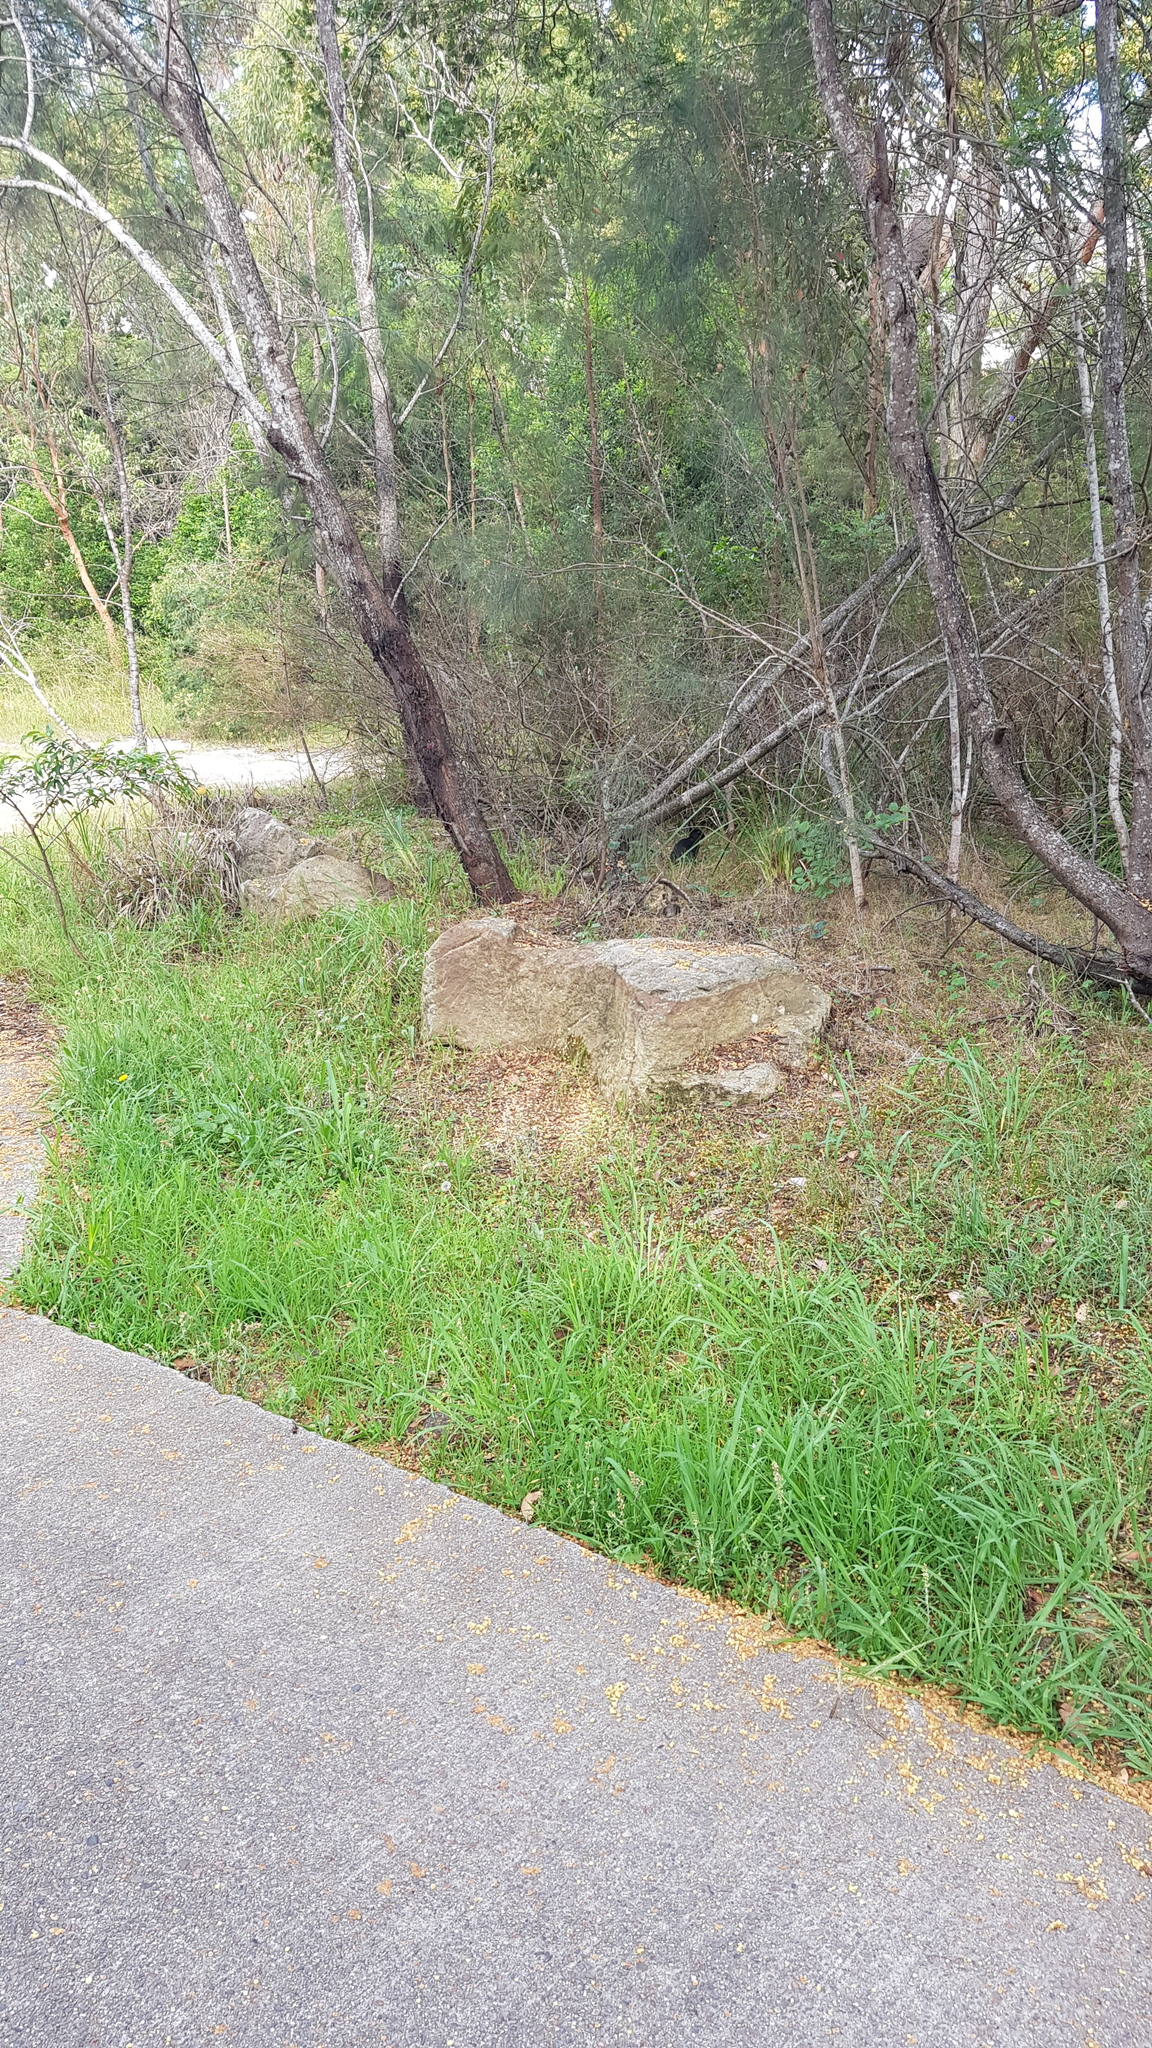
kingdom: Animalia
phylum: Chordata
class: Mammalia
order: Lagomorpha
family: Leporidae
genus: Oryctolagus
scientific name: Oryctolagus cuniculus
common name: European rabbit
